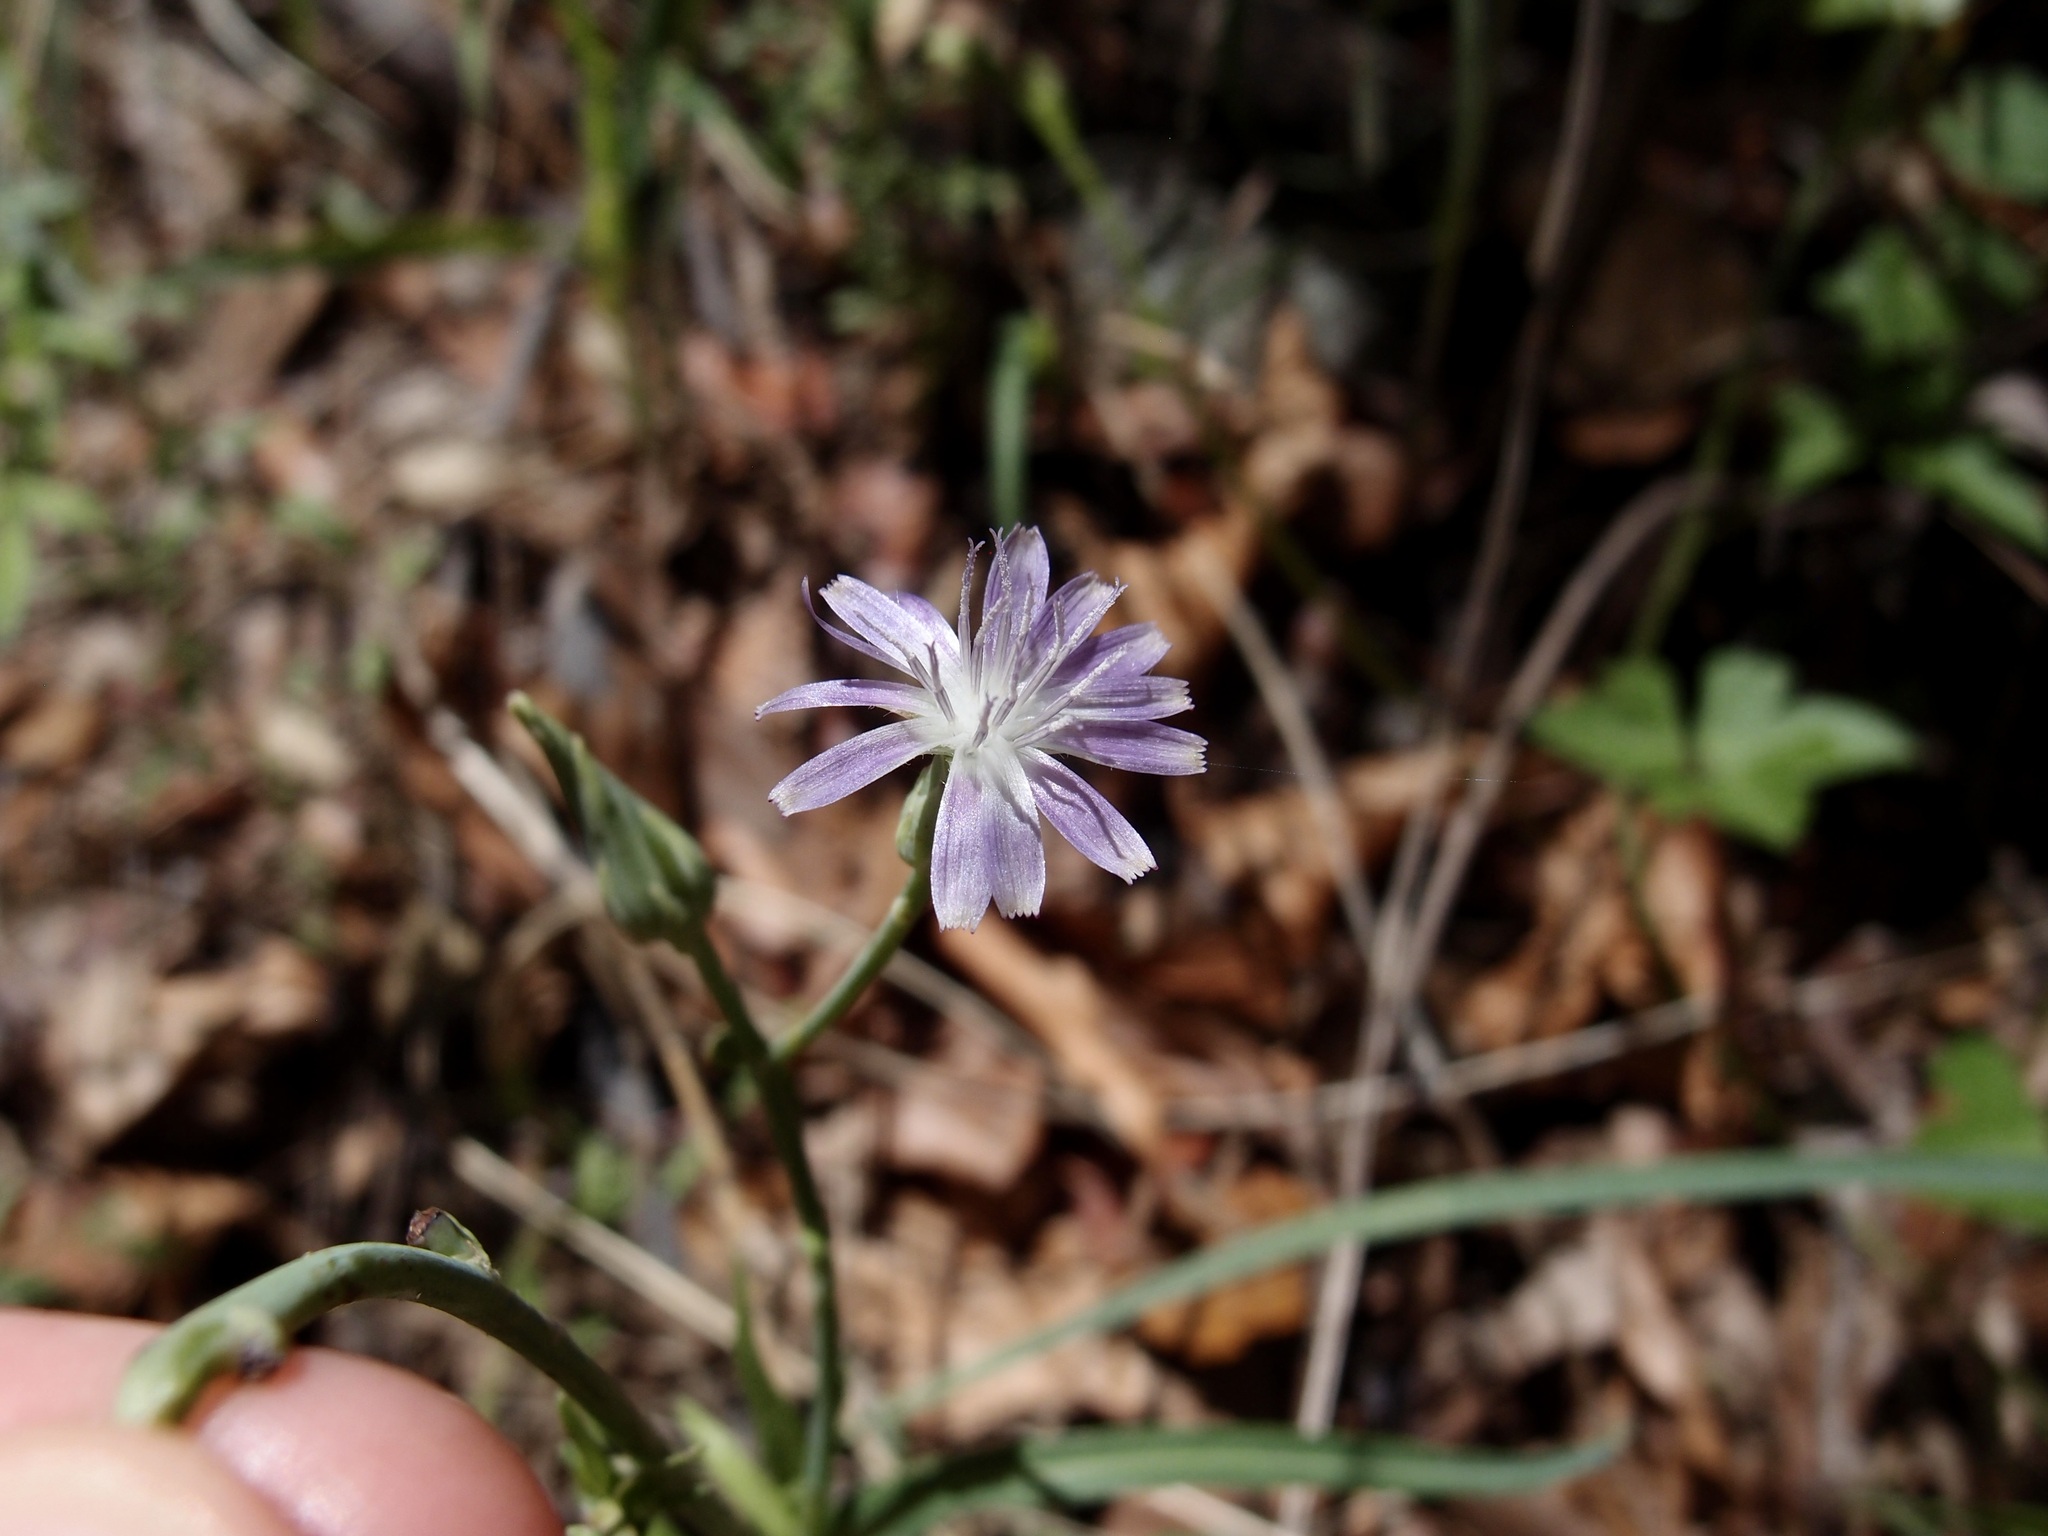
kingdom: Plantae
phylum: Tracheophyta
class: Magnoliopsida
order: Asterales
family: Asteraceae
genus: Lactuca
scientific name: Lactuca graminifolia
